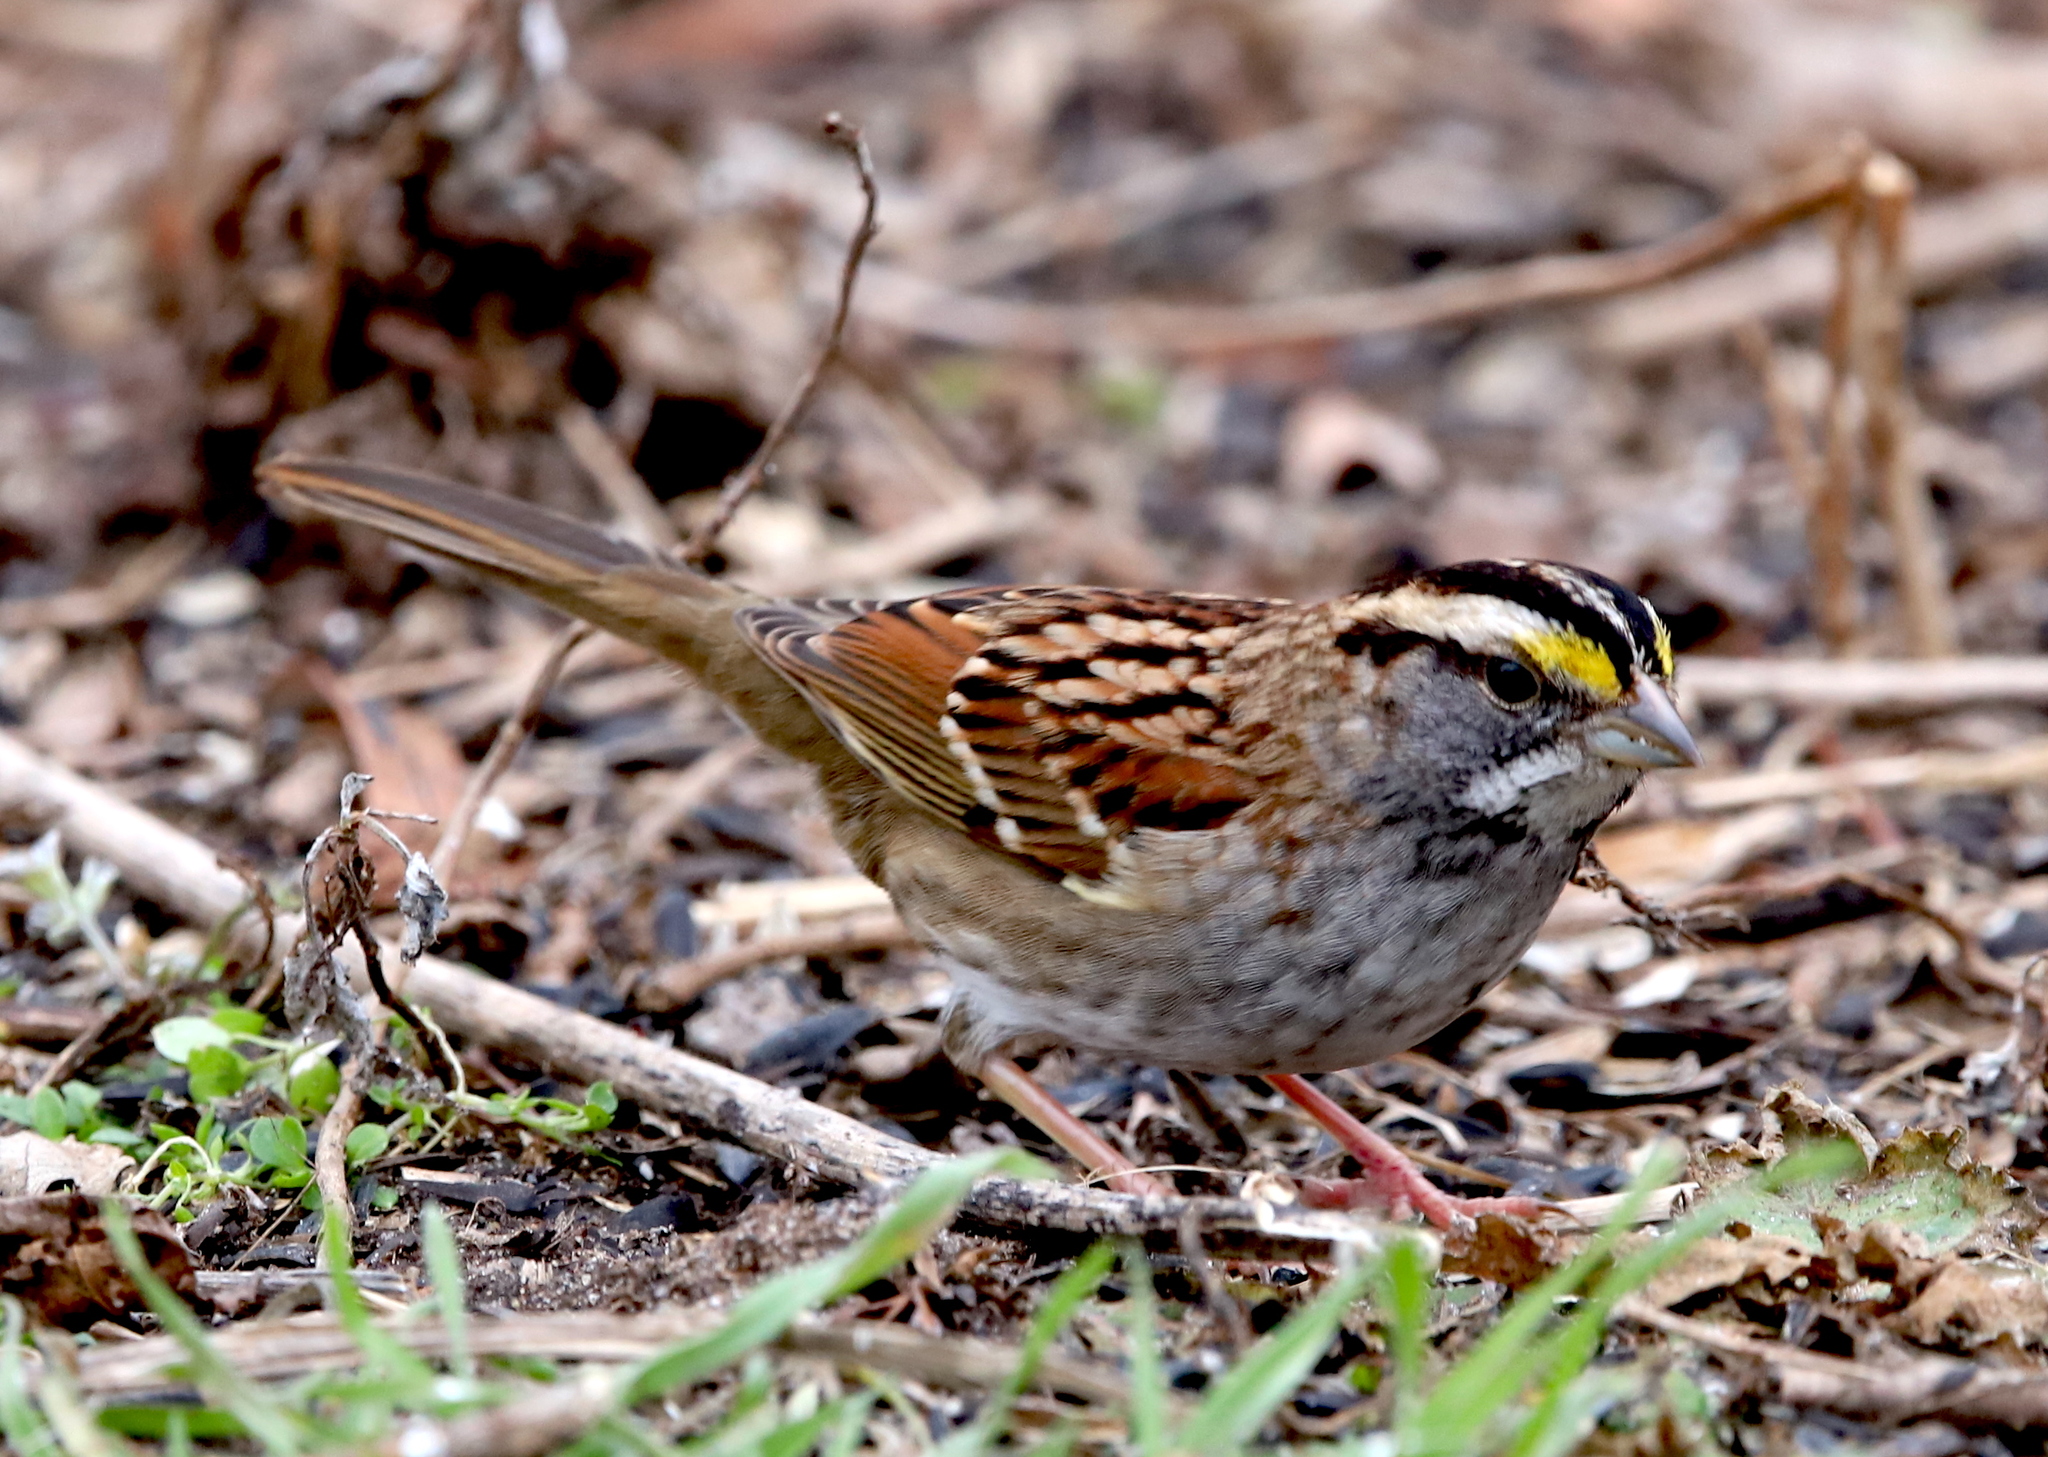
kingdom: Animalia
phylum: Chordata
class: Aves
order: Passeriformes
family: Passerellidae
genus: Zonotrichia
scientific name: Zonotrichia albicollis
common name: White-throated sparrow
